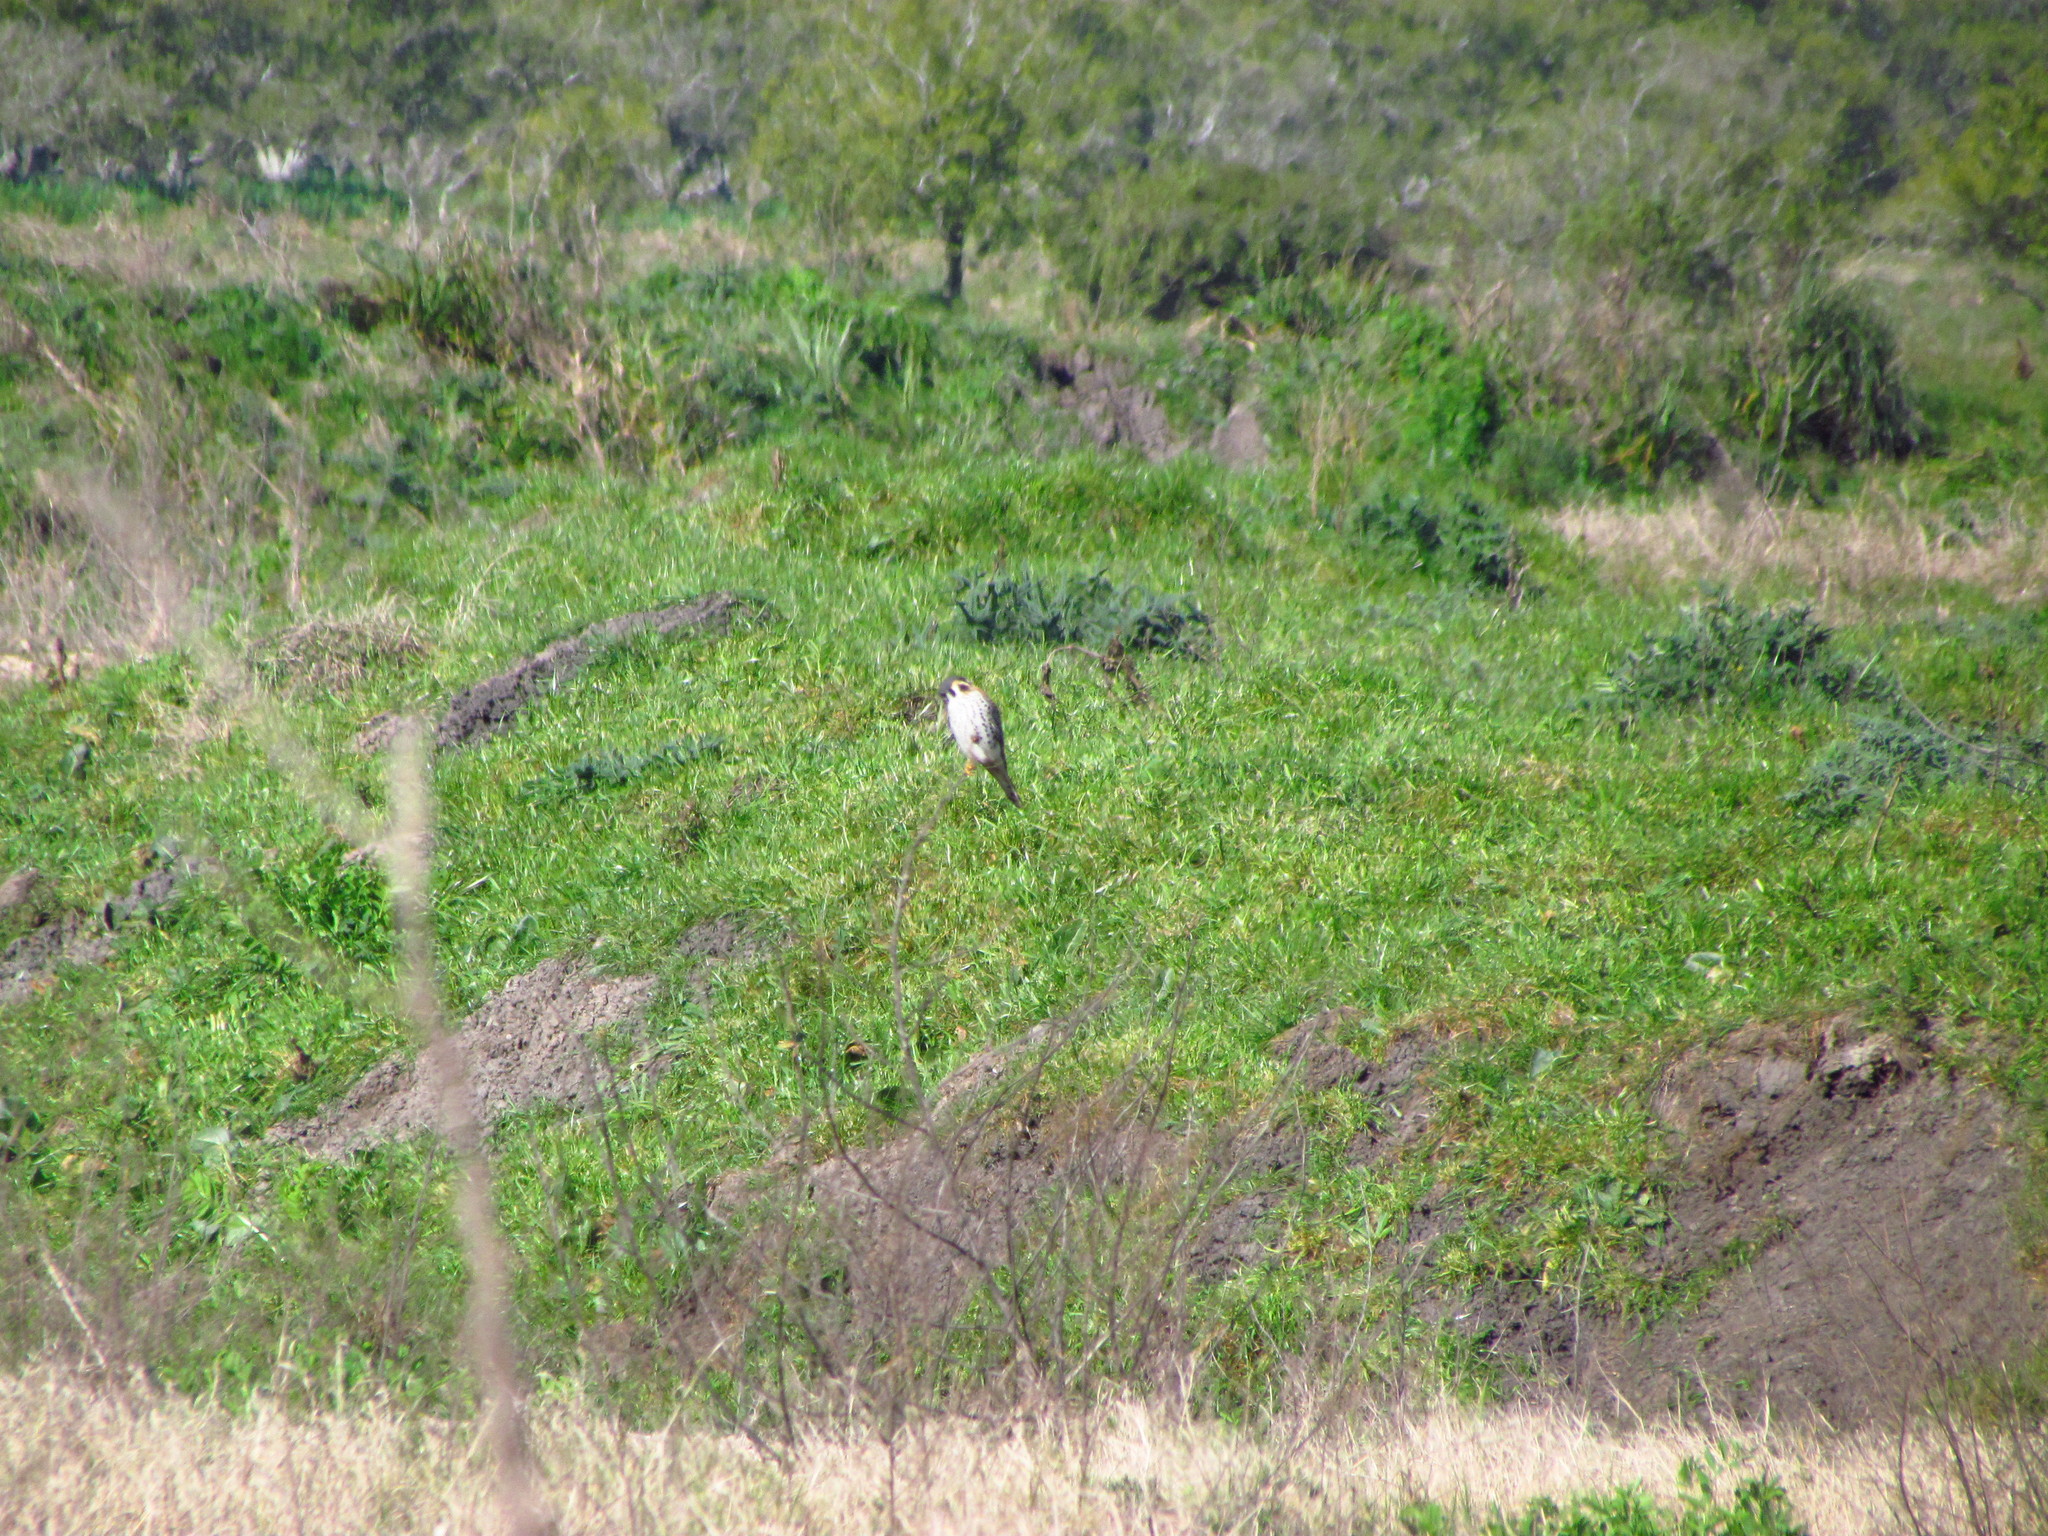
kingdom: Animalia
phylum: Chordata
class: Aves
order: Falconiformes
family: Falconidae
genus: Falco
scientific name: Falco sparverius
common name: American kestrel
